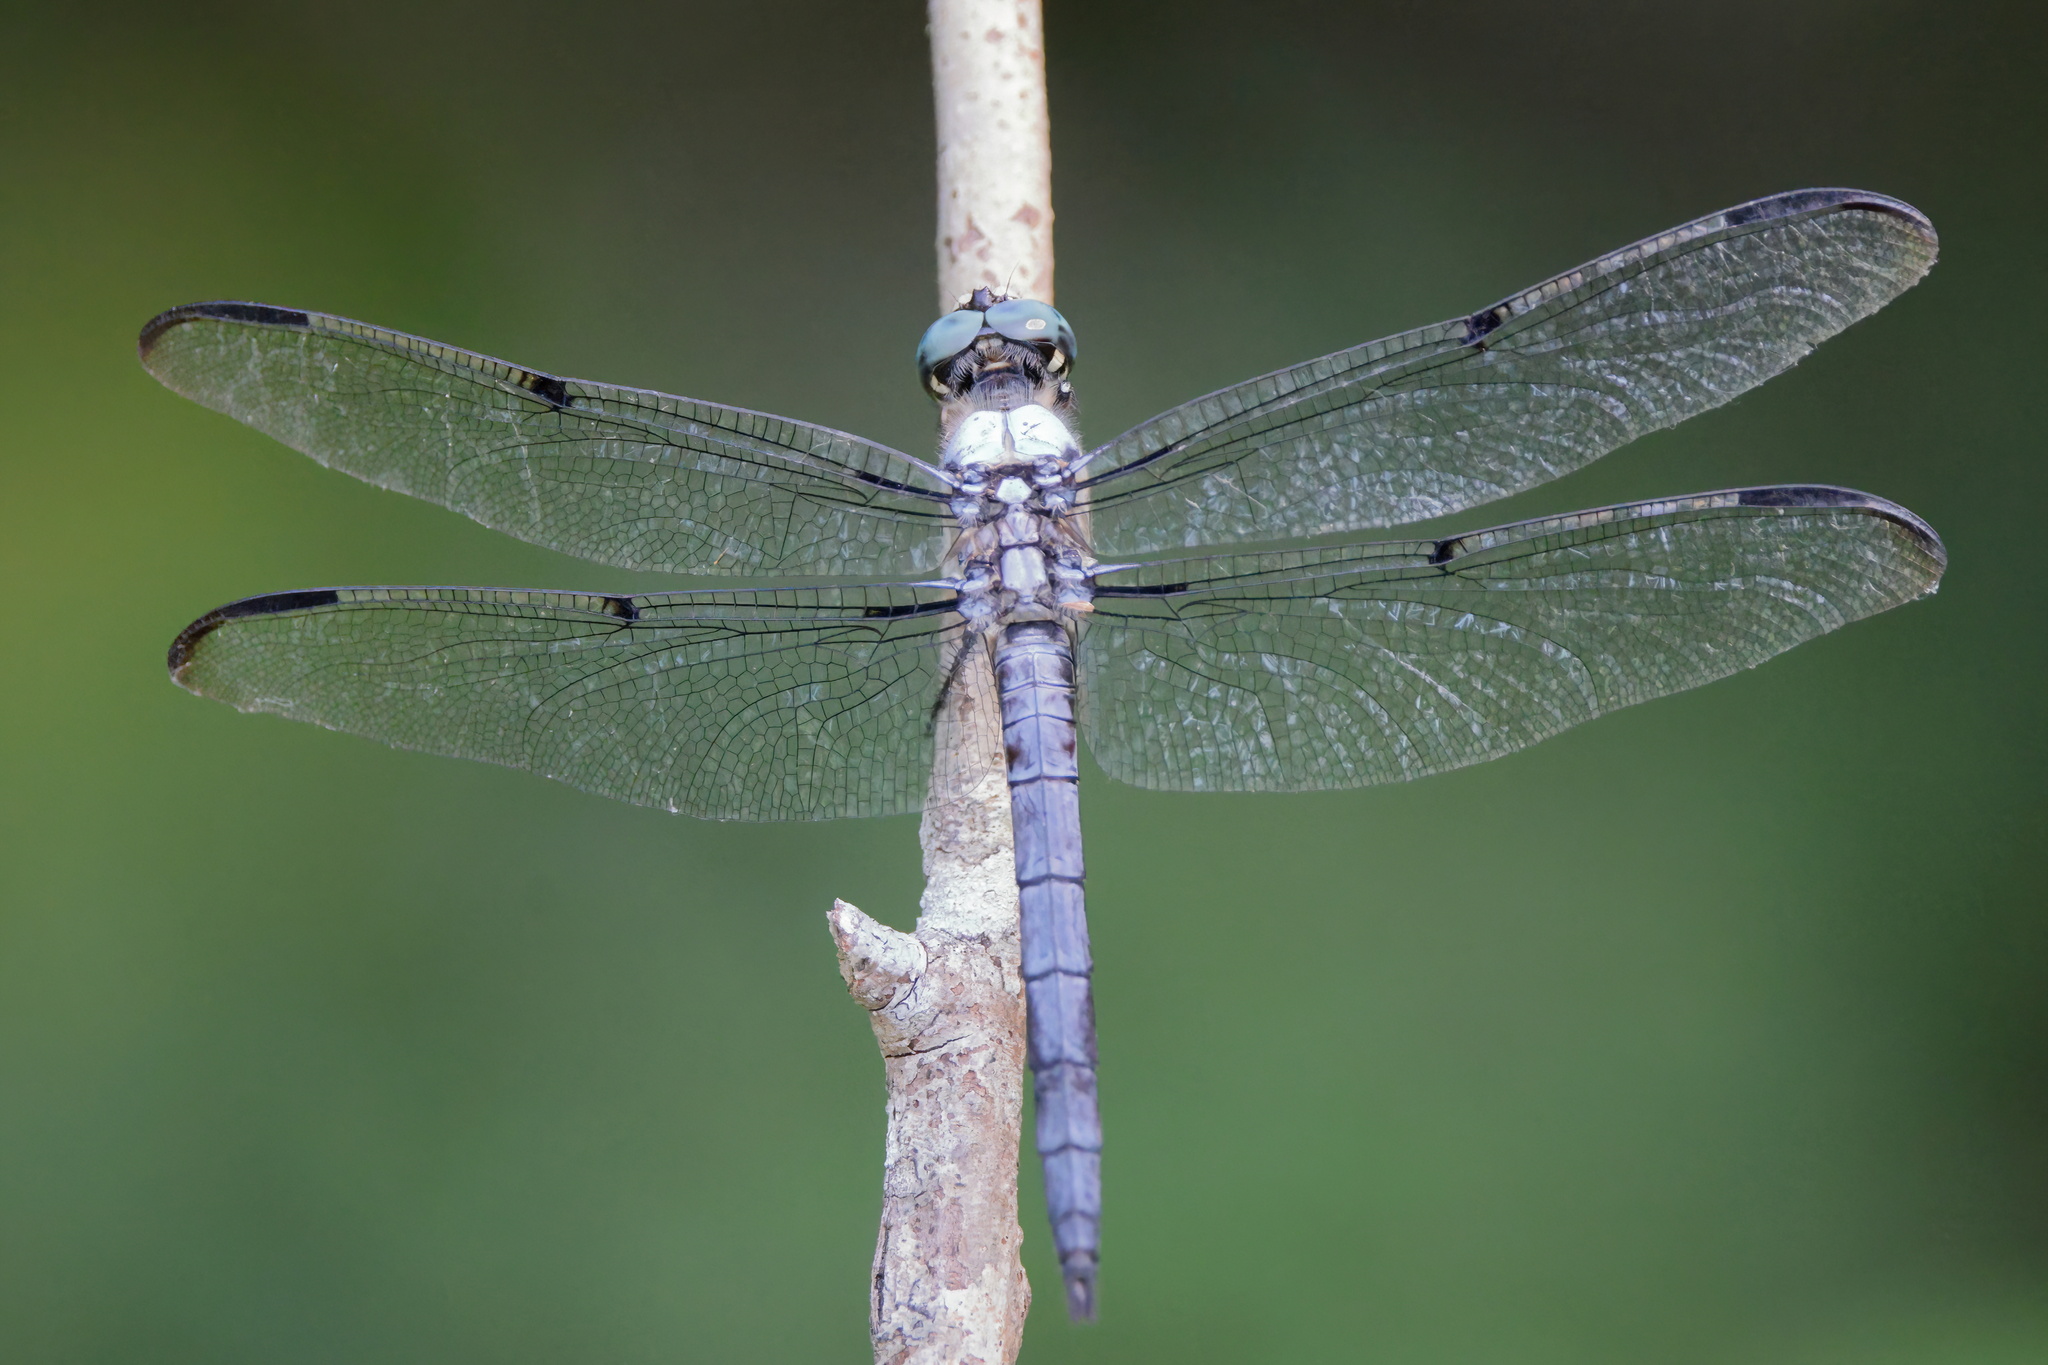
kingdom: Animalia
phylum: Arthropoda
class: Insecta
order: Odonata
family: Libellulidae
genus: Libellula
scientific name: Libellula vibrans
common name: Great blue skimmer
